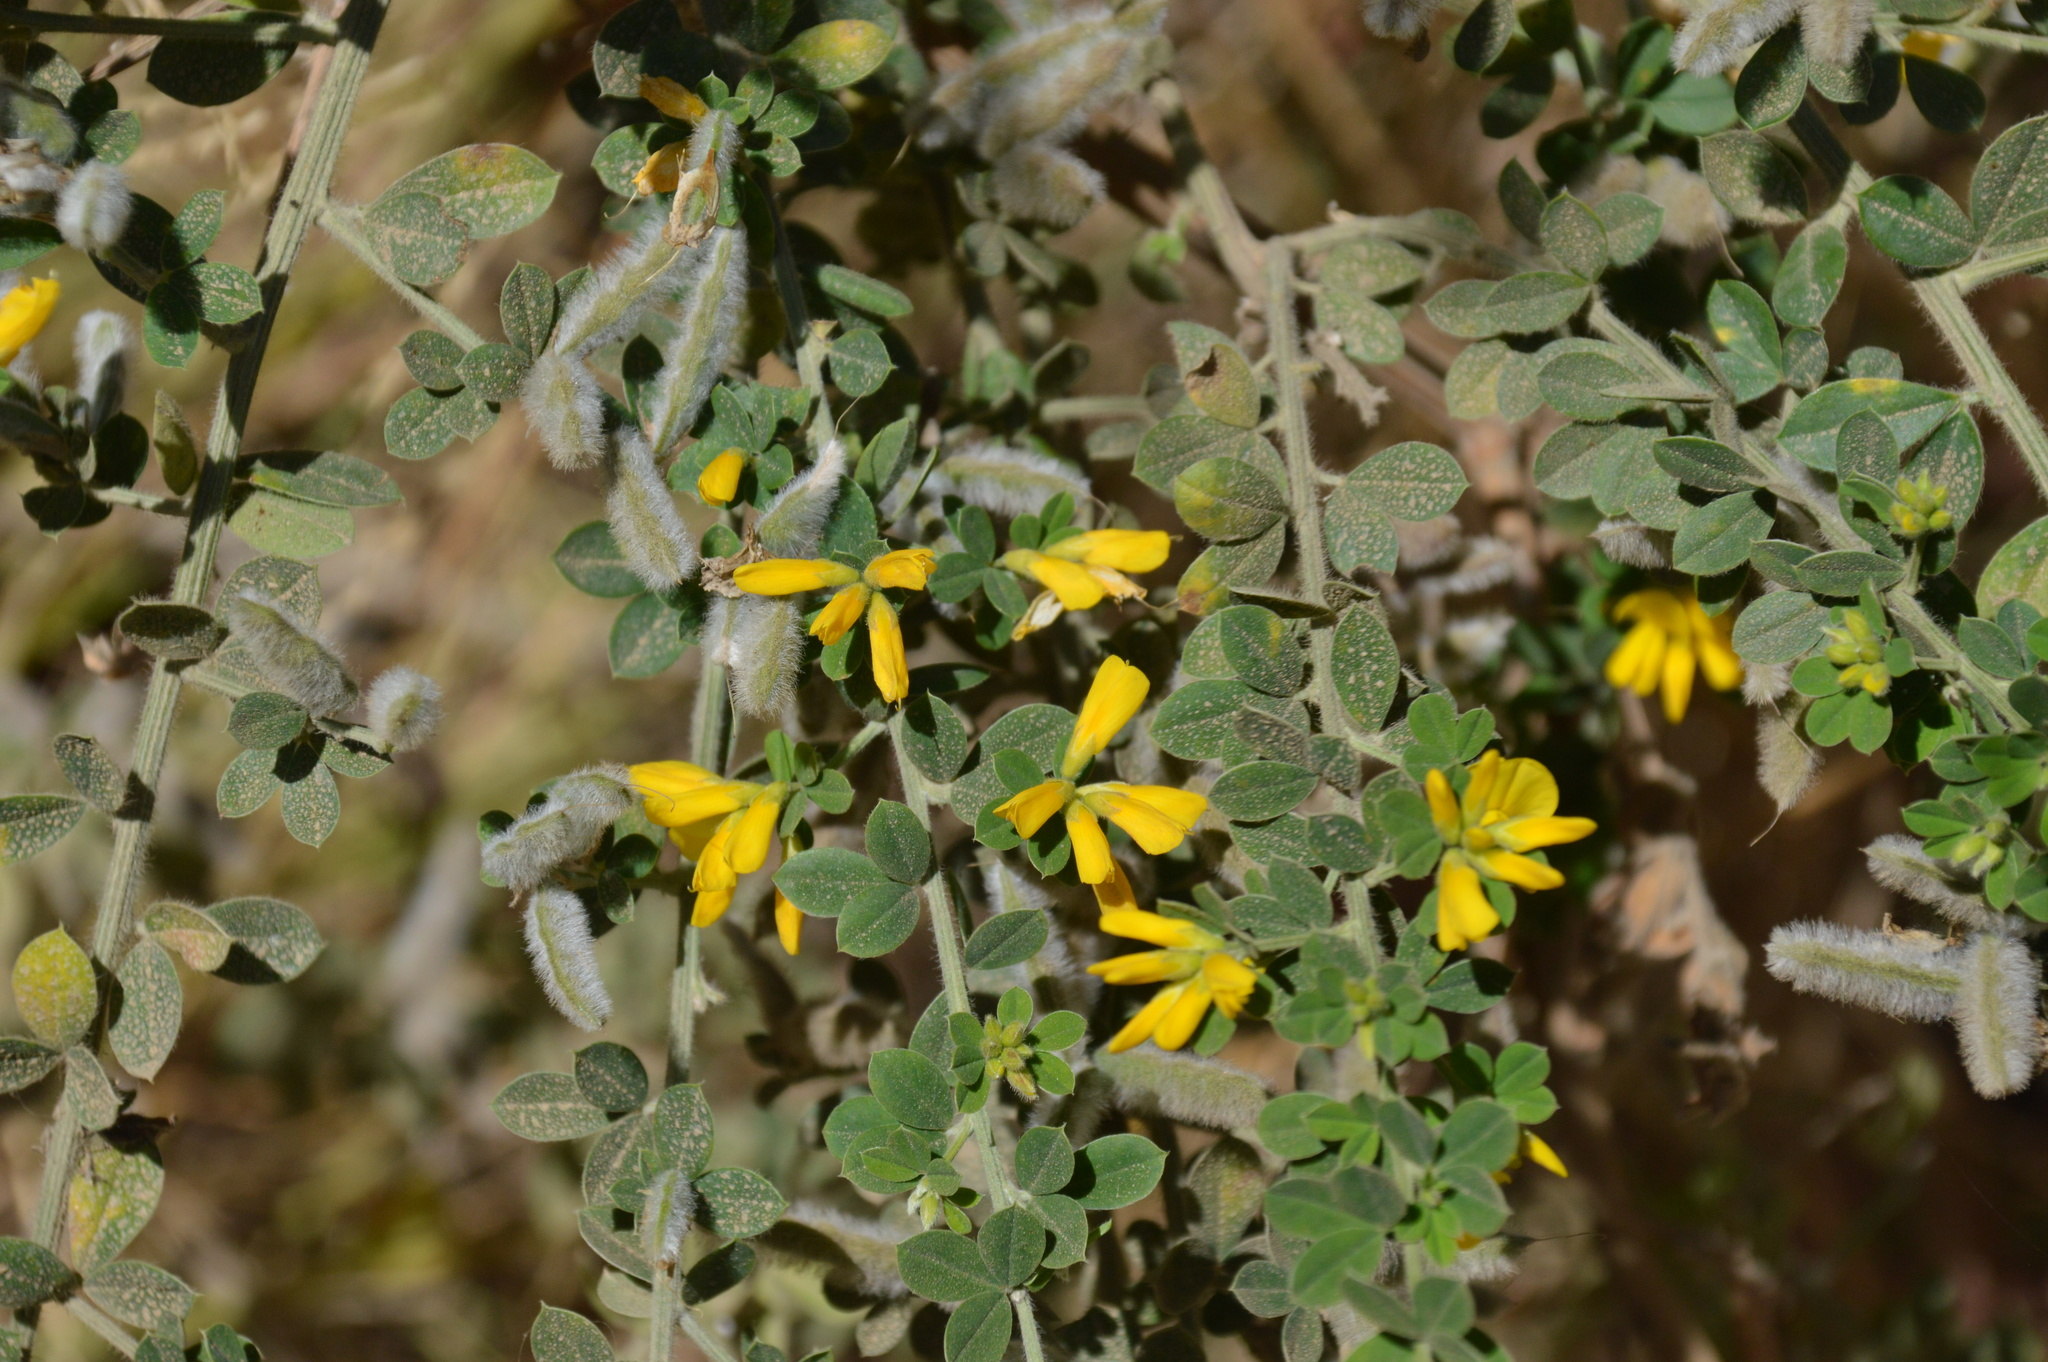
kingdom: Plantae
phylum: Tracheophyta
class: Magnoliopsida
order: Fabales
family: Fabaceae
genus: Genista
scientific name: Genista monspessulana
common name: Montpellier broom
